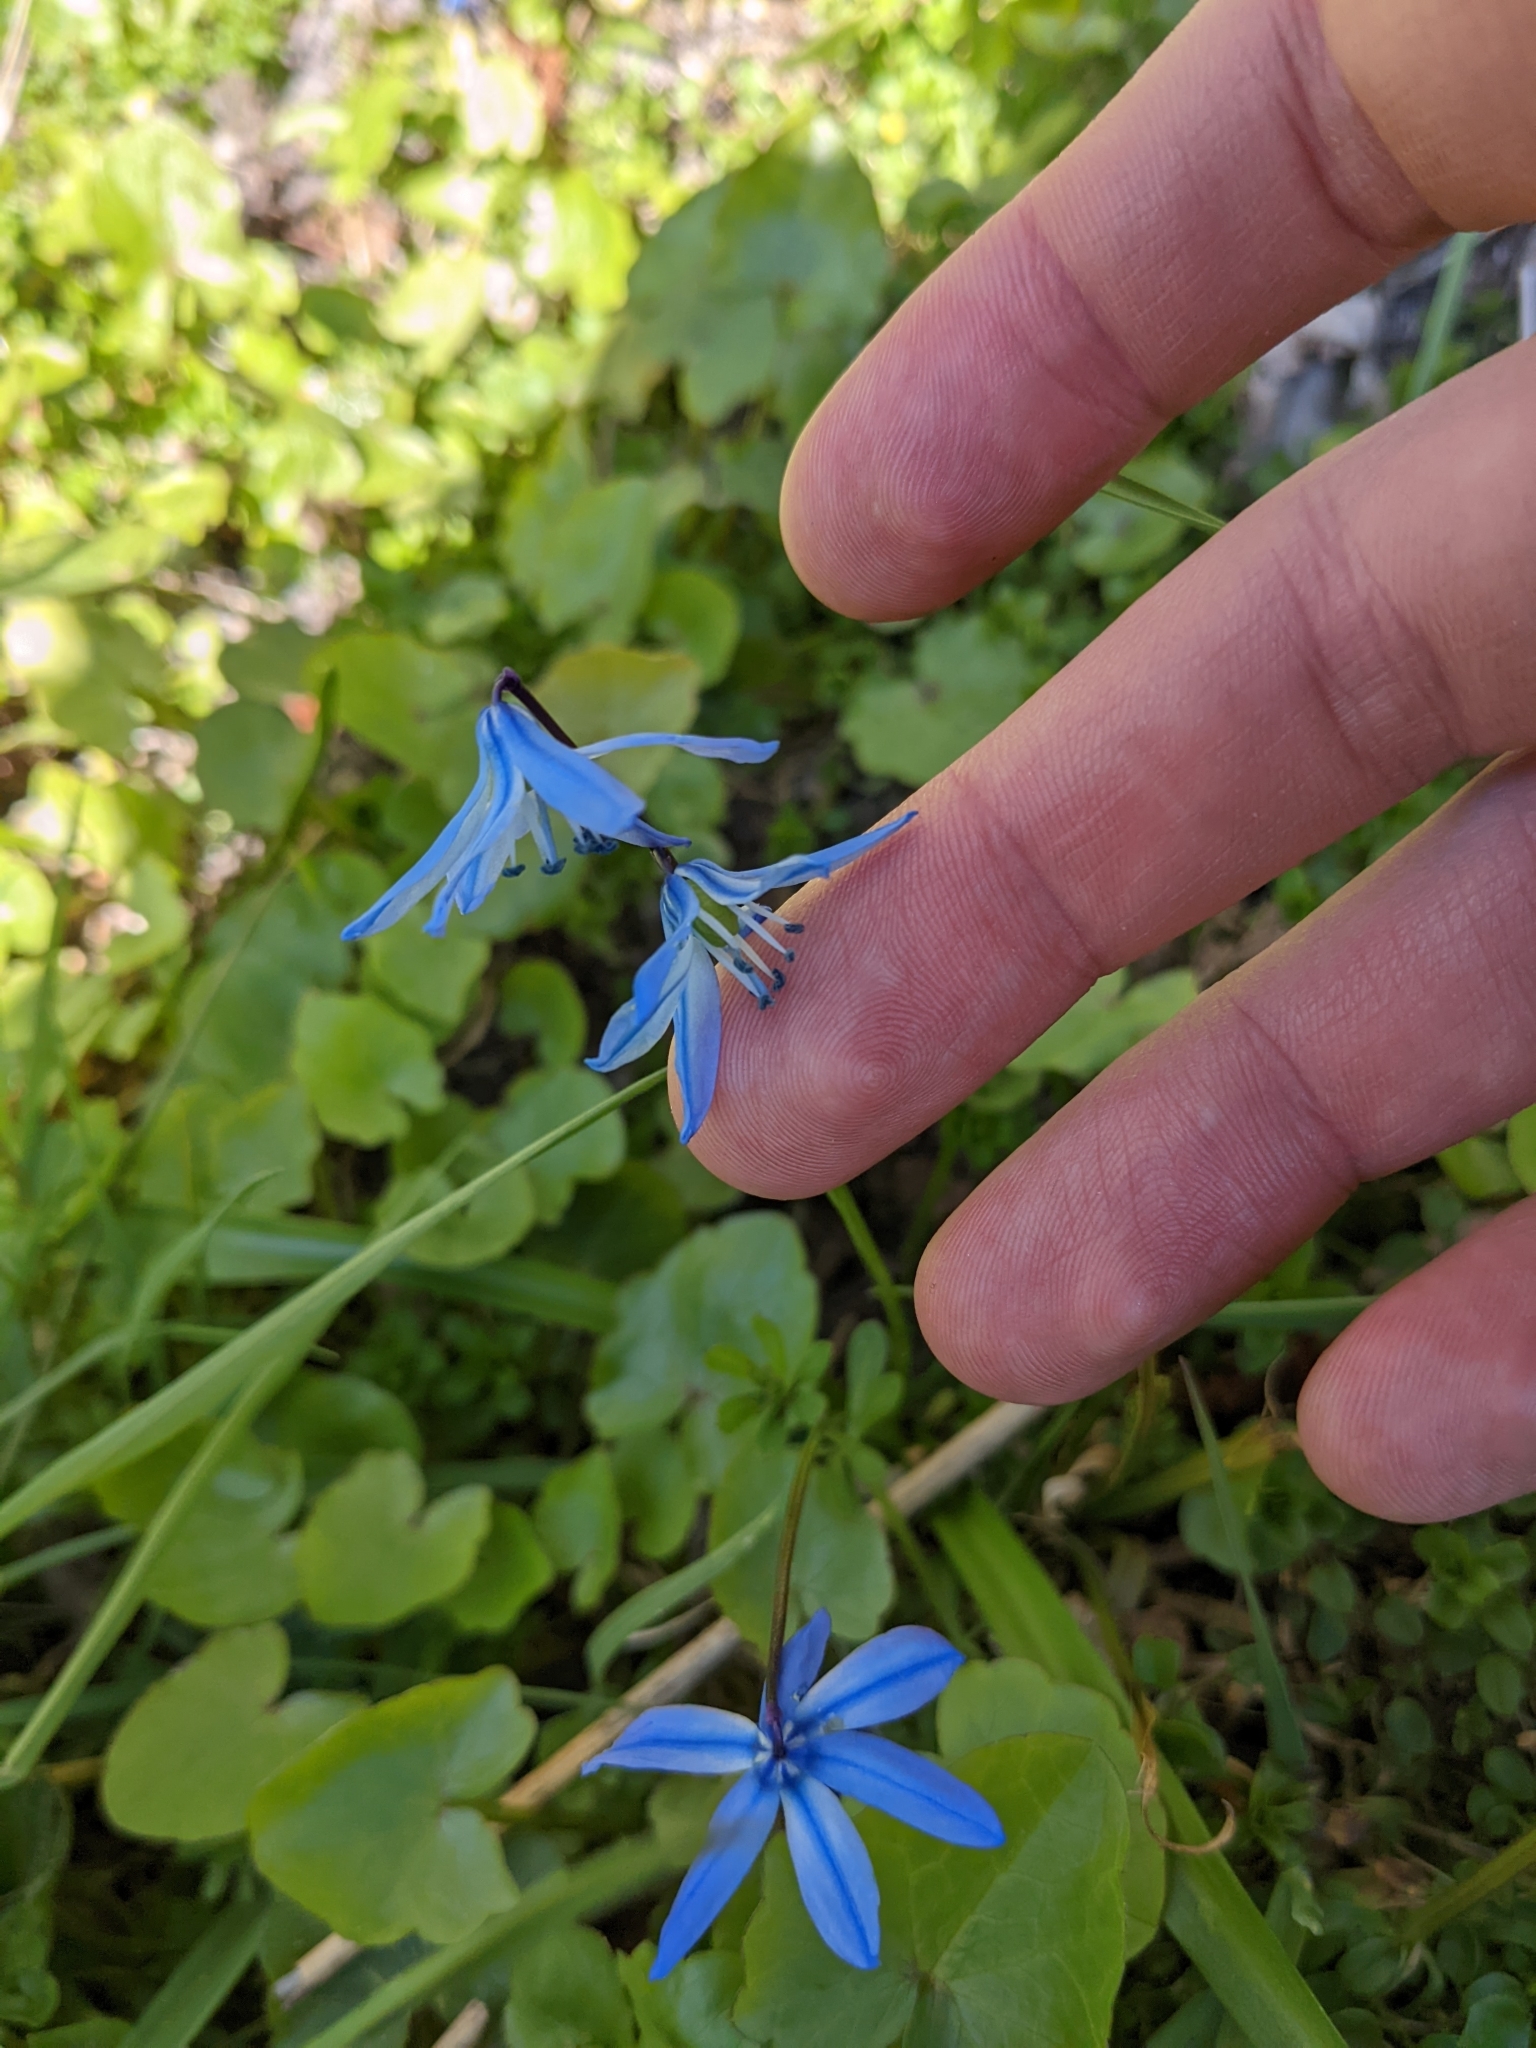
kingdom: Plantae
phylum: Tracheophyta
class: Liliopsida
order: Asparagales
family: Asparagaceae
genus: Scilla
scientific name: Scilla siberica
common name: Siberian squill
